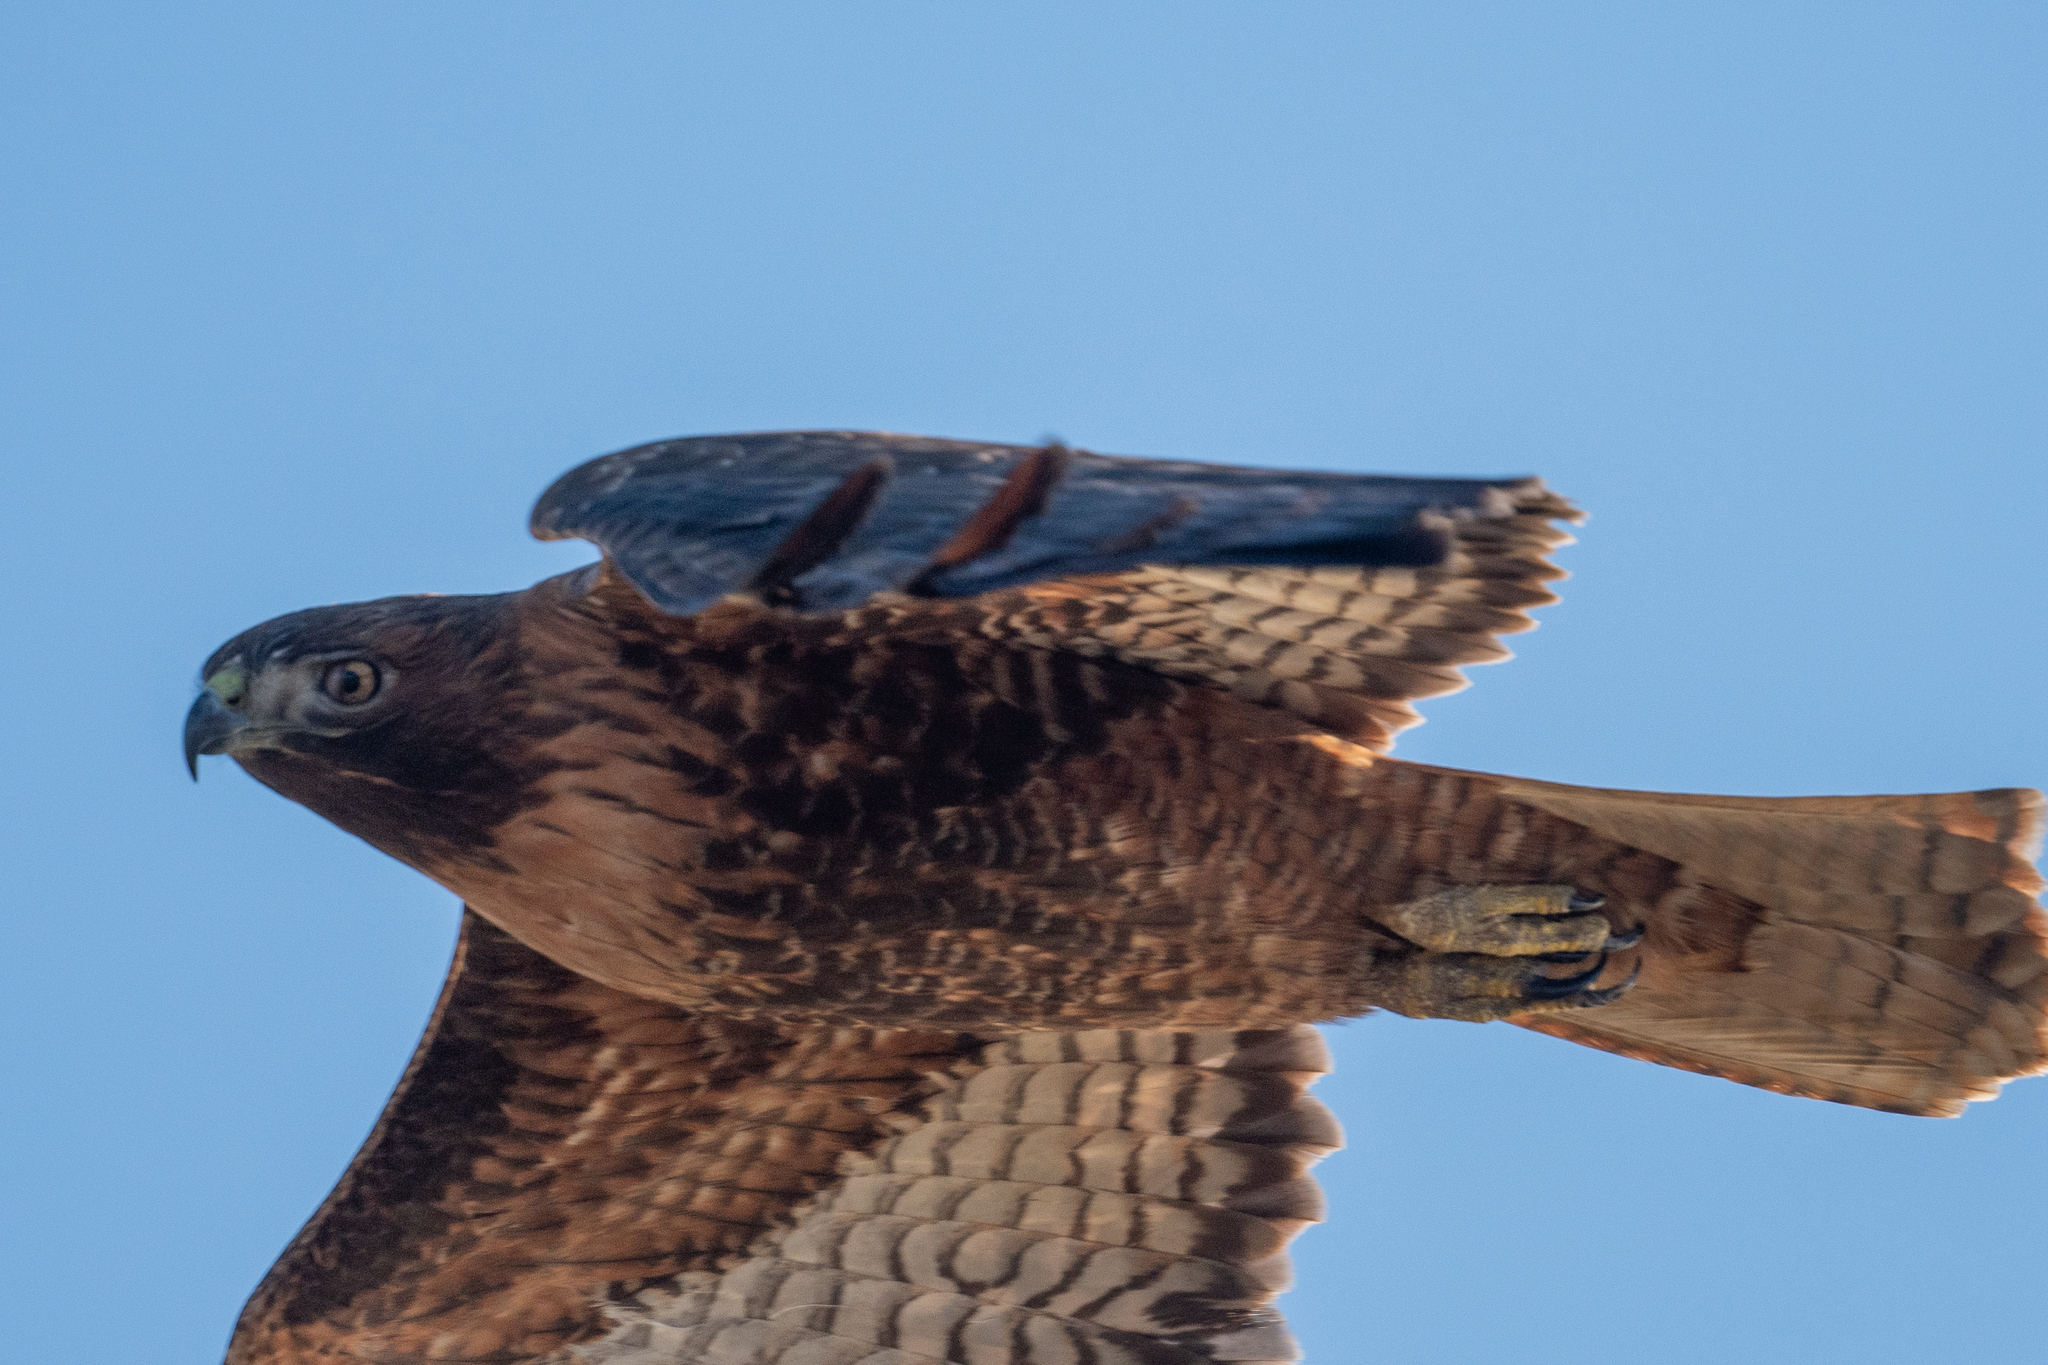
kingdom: Animalia
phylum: Chordata
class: Aves
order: Accipitriformes
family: Accipitridae
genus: Buteo
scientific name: Buteo jamaicensis
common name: Red-tailed hawk
